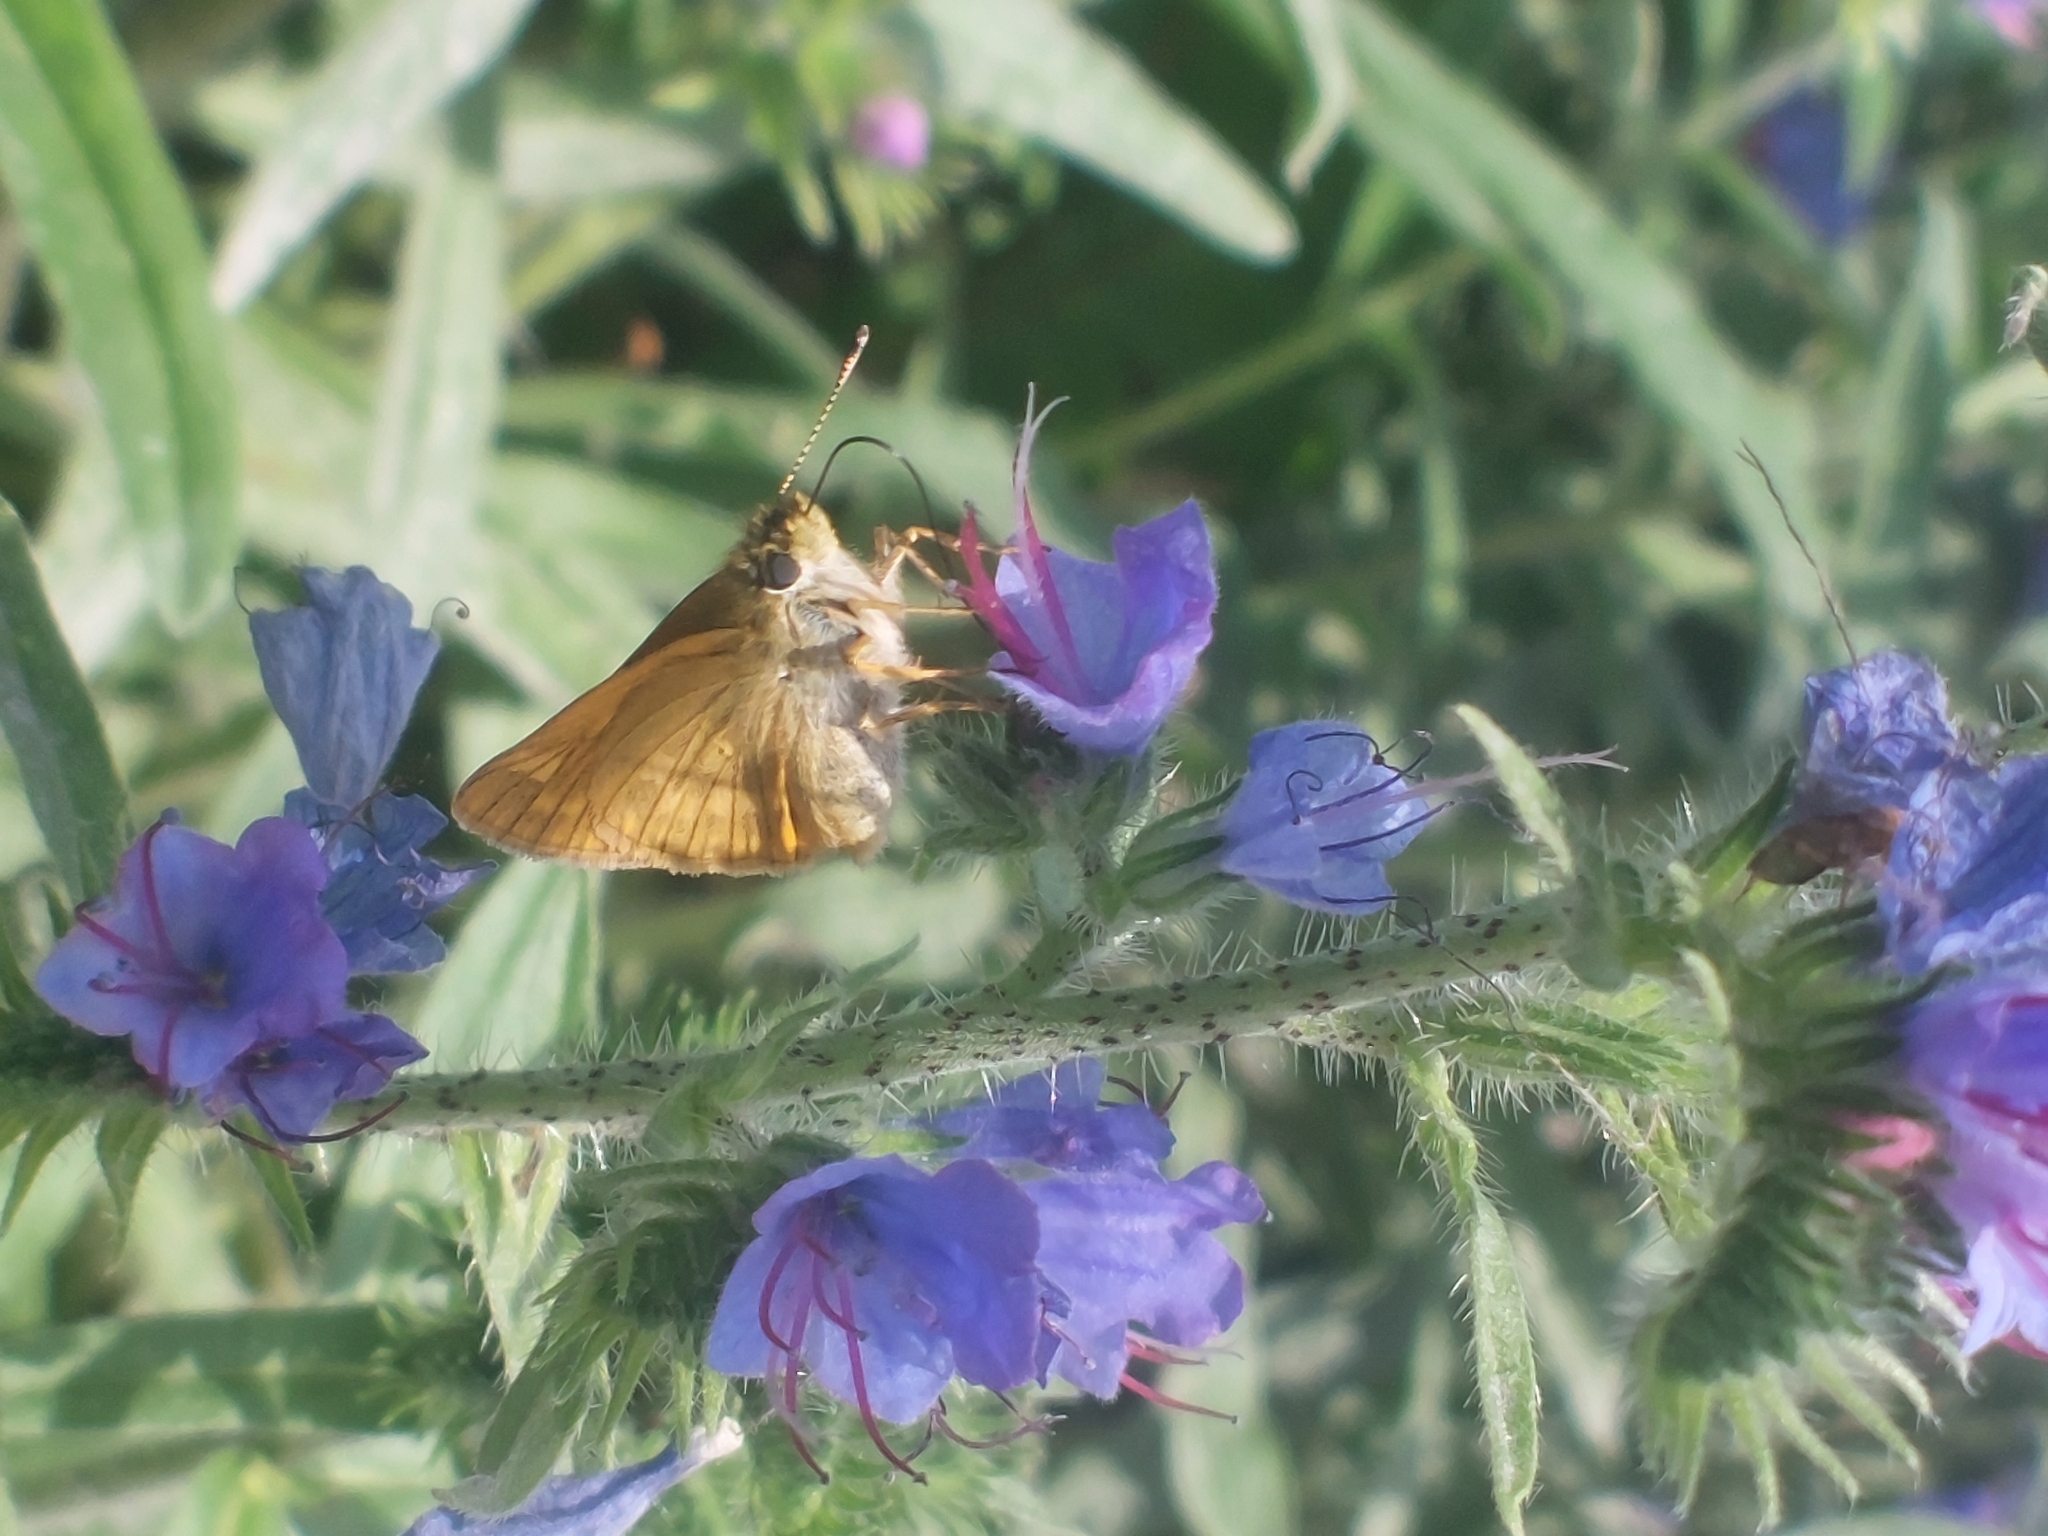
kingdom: Animalia
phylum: Arthropoda
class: Insecta
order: Lepidoptera
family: Hesperiidae
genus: Ochlodes
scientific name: Ochlodes venata
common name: Large skipper
